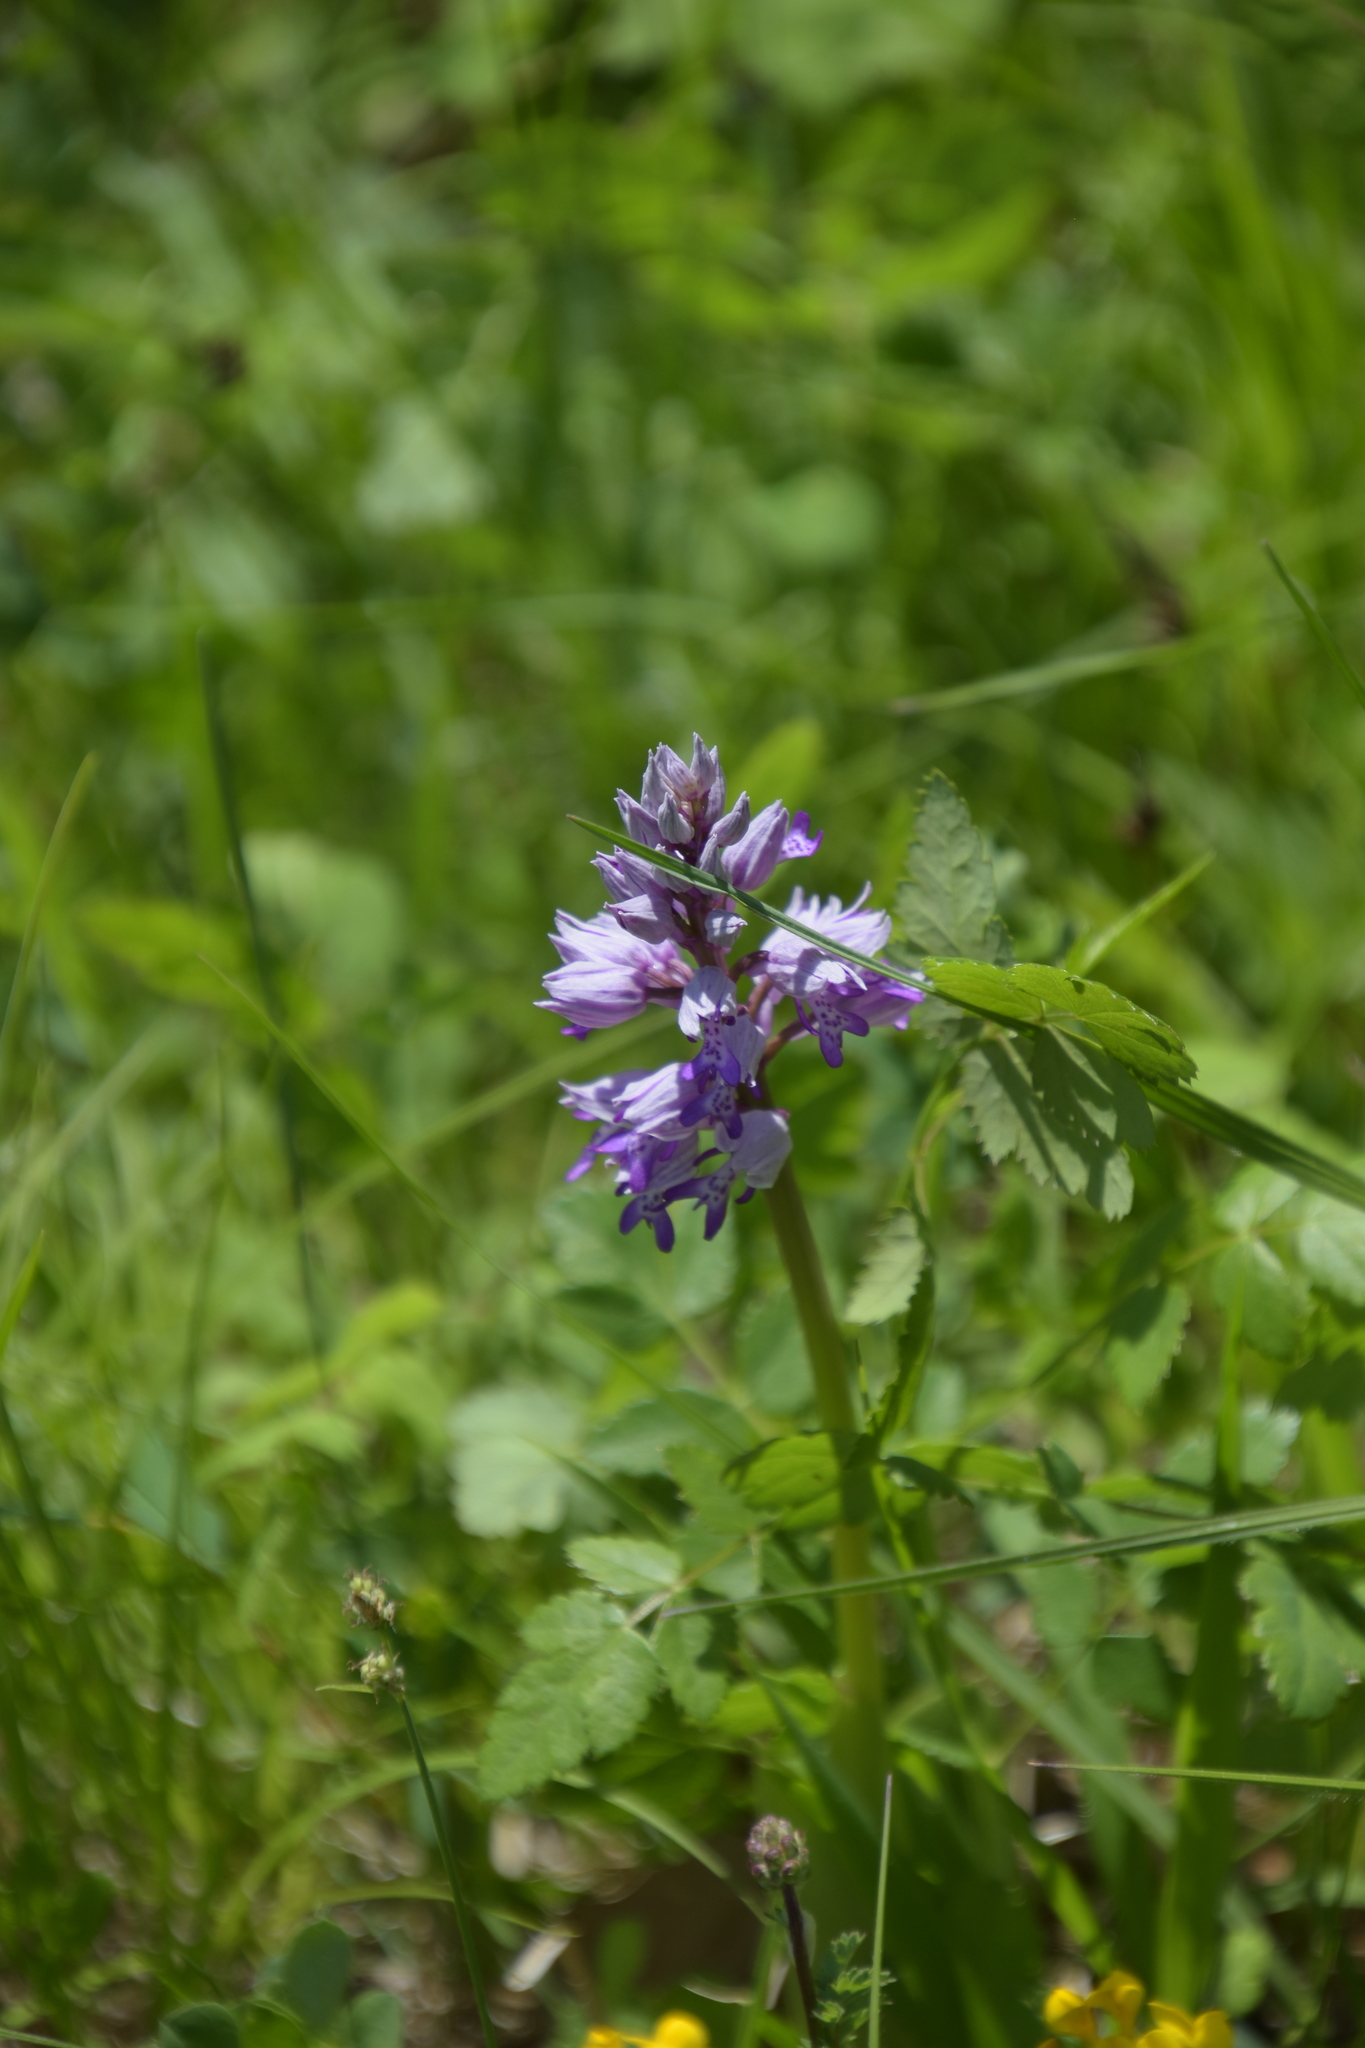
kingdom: Plantae
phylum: Tracheophyta
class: Liliopsida
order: Asparagales
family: Orchidaceae
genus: Orchis
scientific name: Orchis militaris
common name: Military orchid
